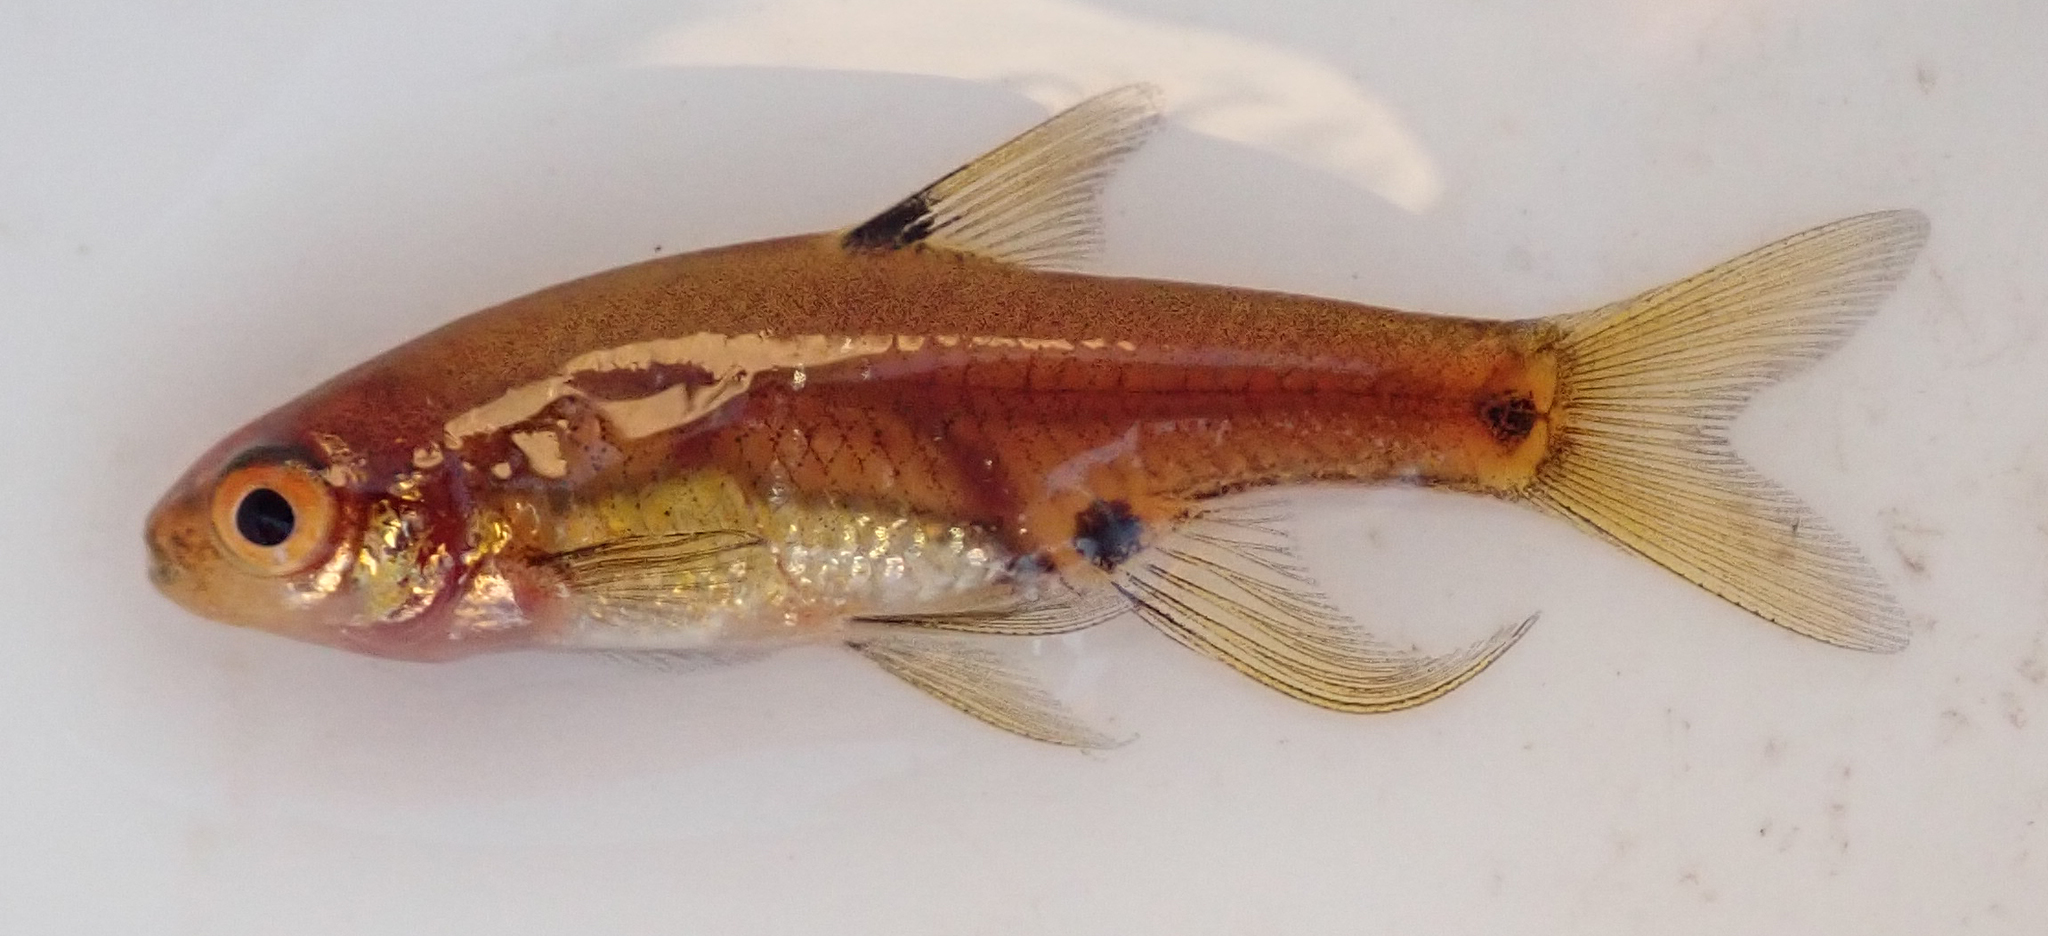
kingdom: Animalia
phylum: Chordata
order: Cypriniformes
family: Cyprinidae
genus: Enteromius
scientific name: Enteromius haasianus
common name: Sickle-fin barb
